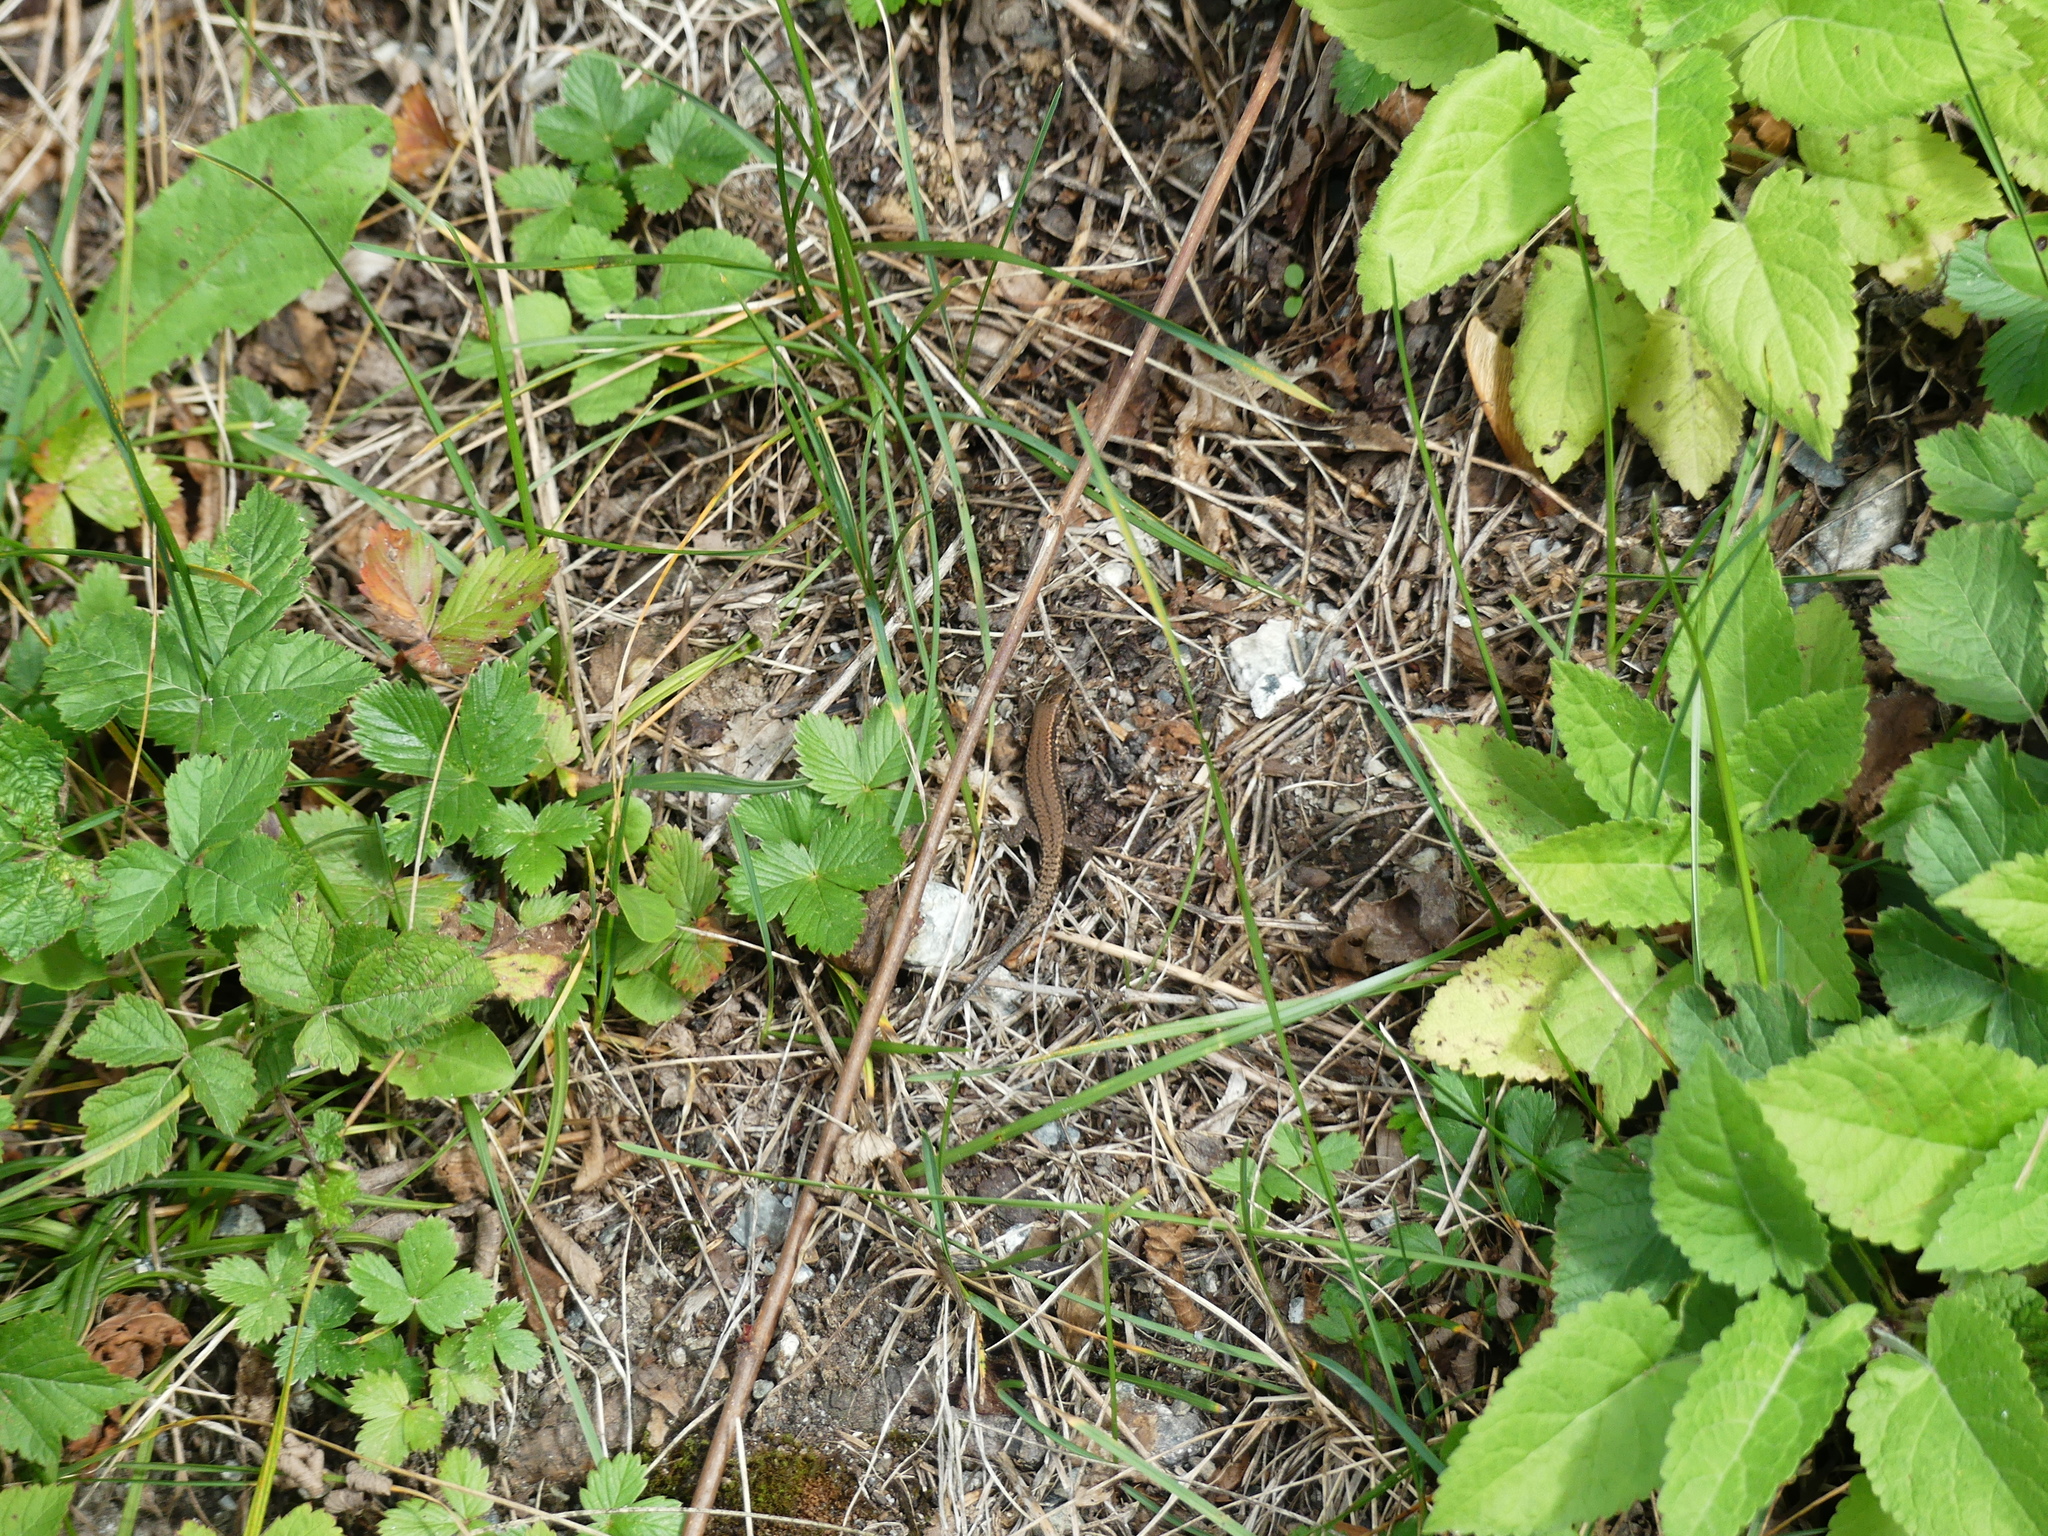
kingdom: Animalia
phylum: Chordata
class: Squamata
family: Lacertidae
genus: Podarcis
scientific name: Podarcis muralis
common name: Common wall lizard
